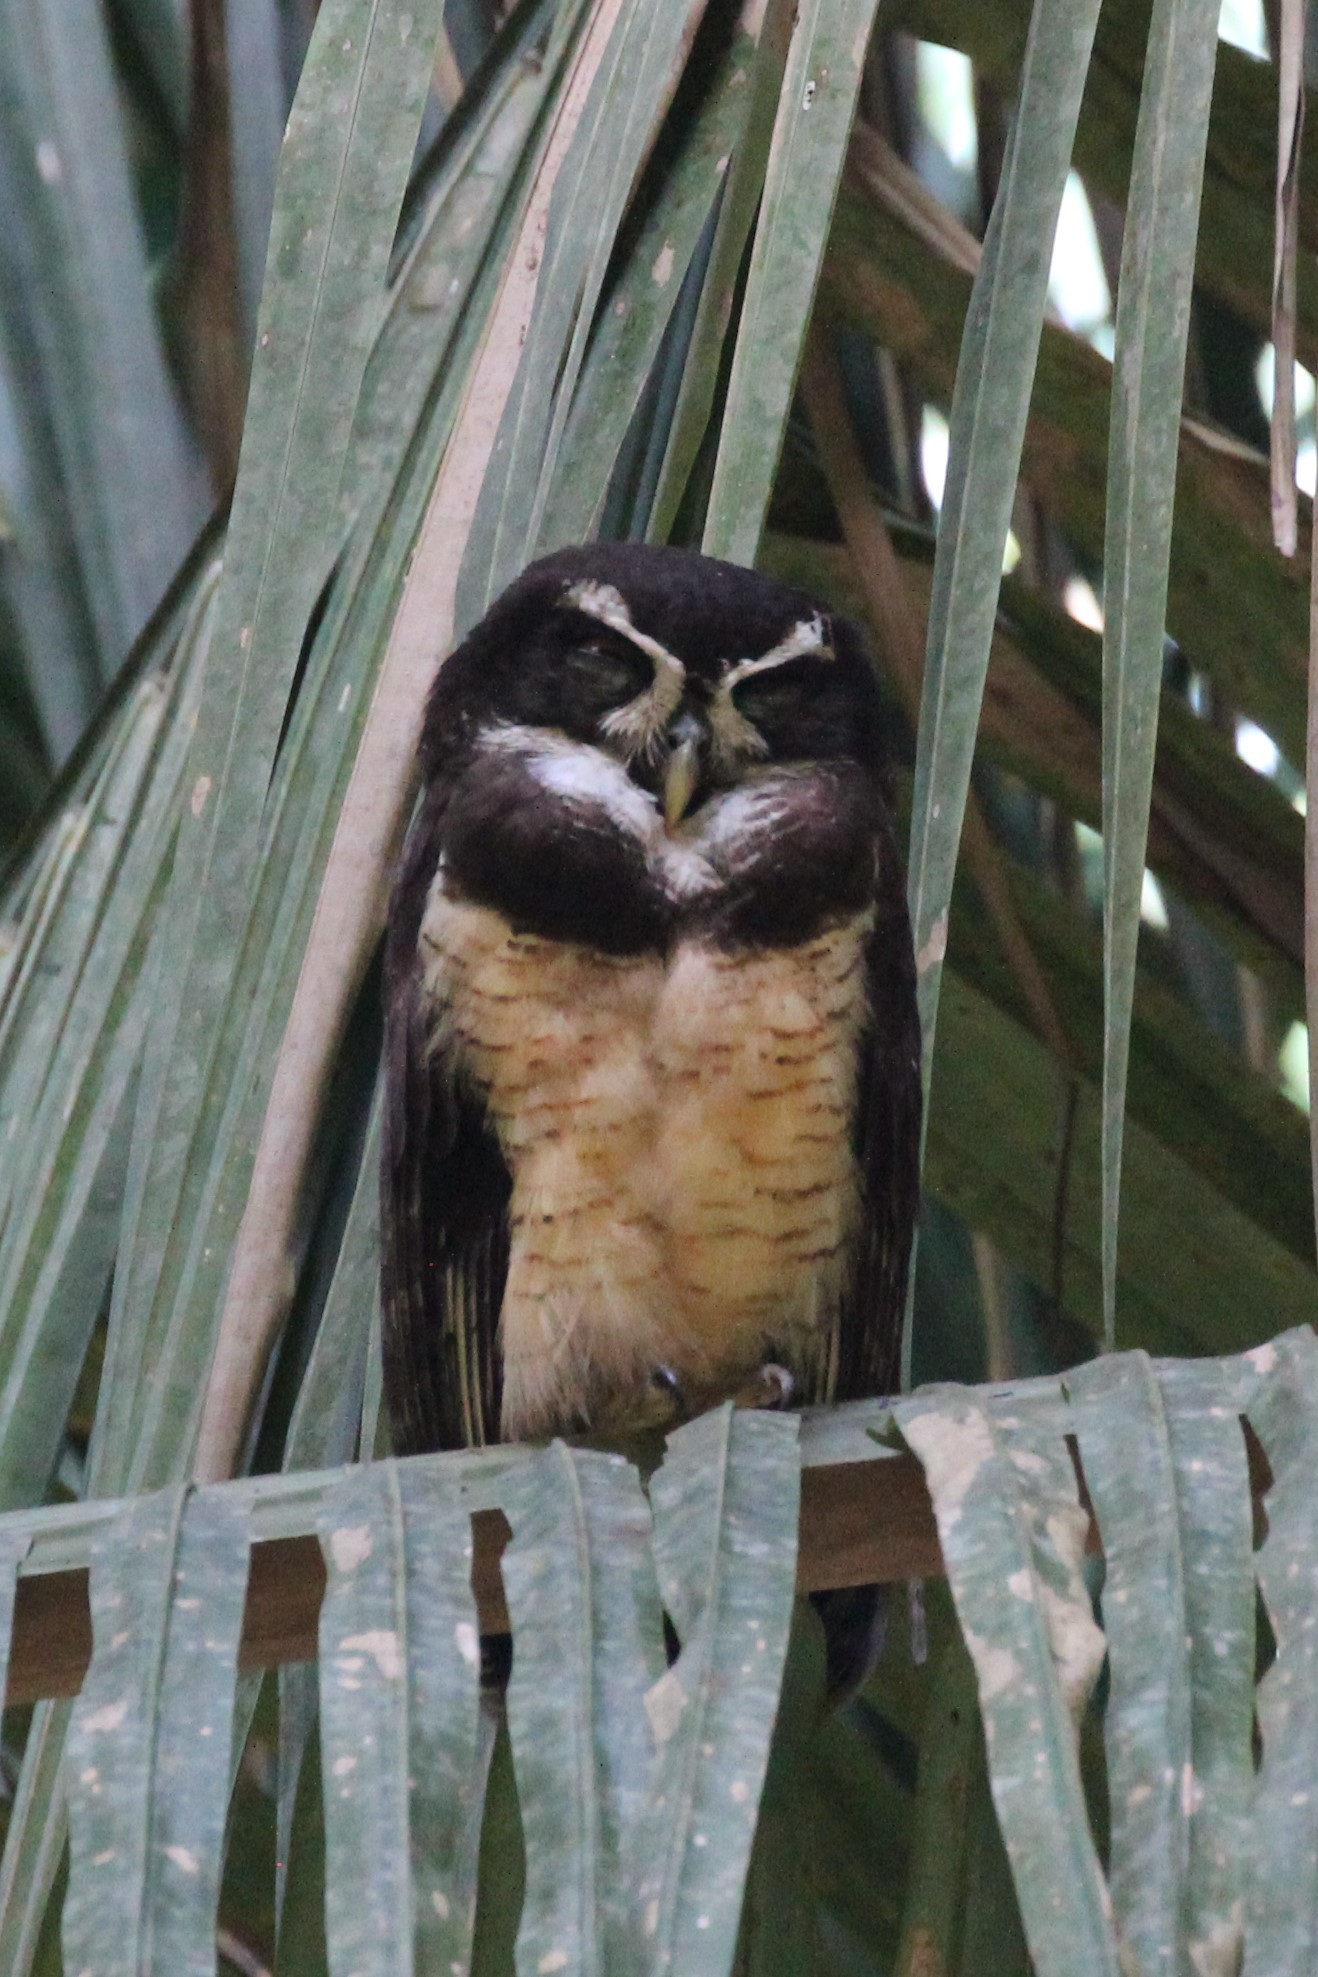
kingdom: Animalia
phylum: Chordata
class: Aves
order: Strigiformes
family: Strigidae
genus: Pulsatrix
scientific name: Pulsatrix perspicillata
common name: Spectacled owl
